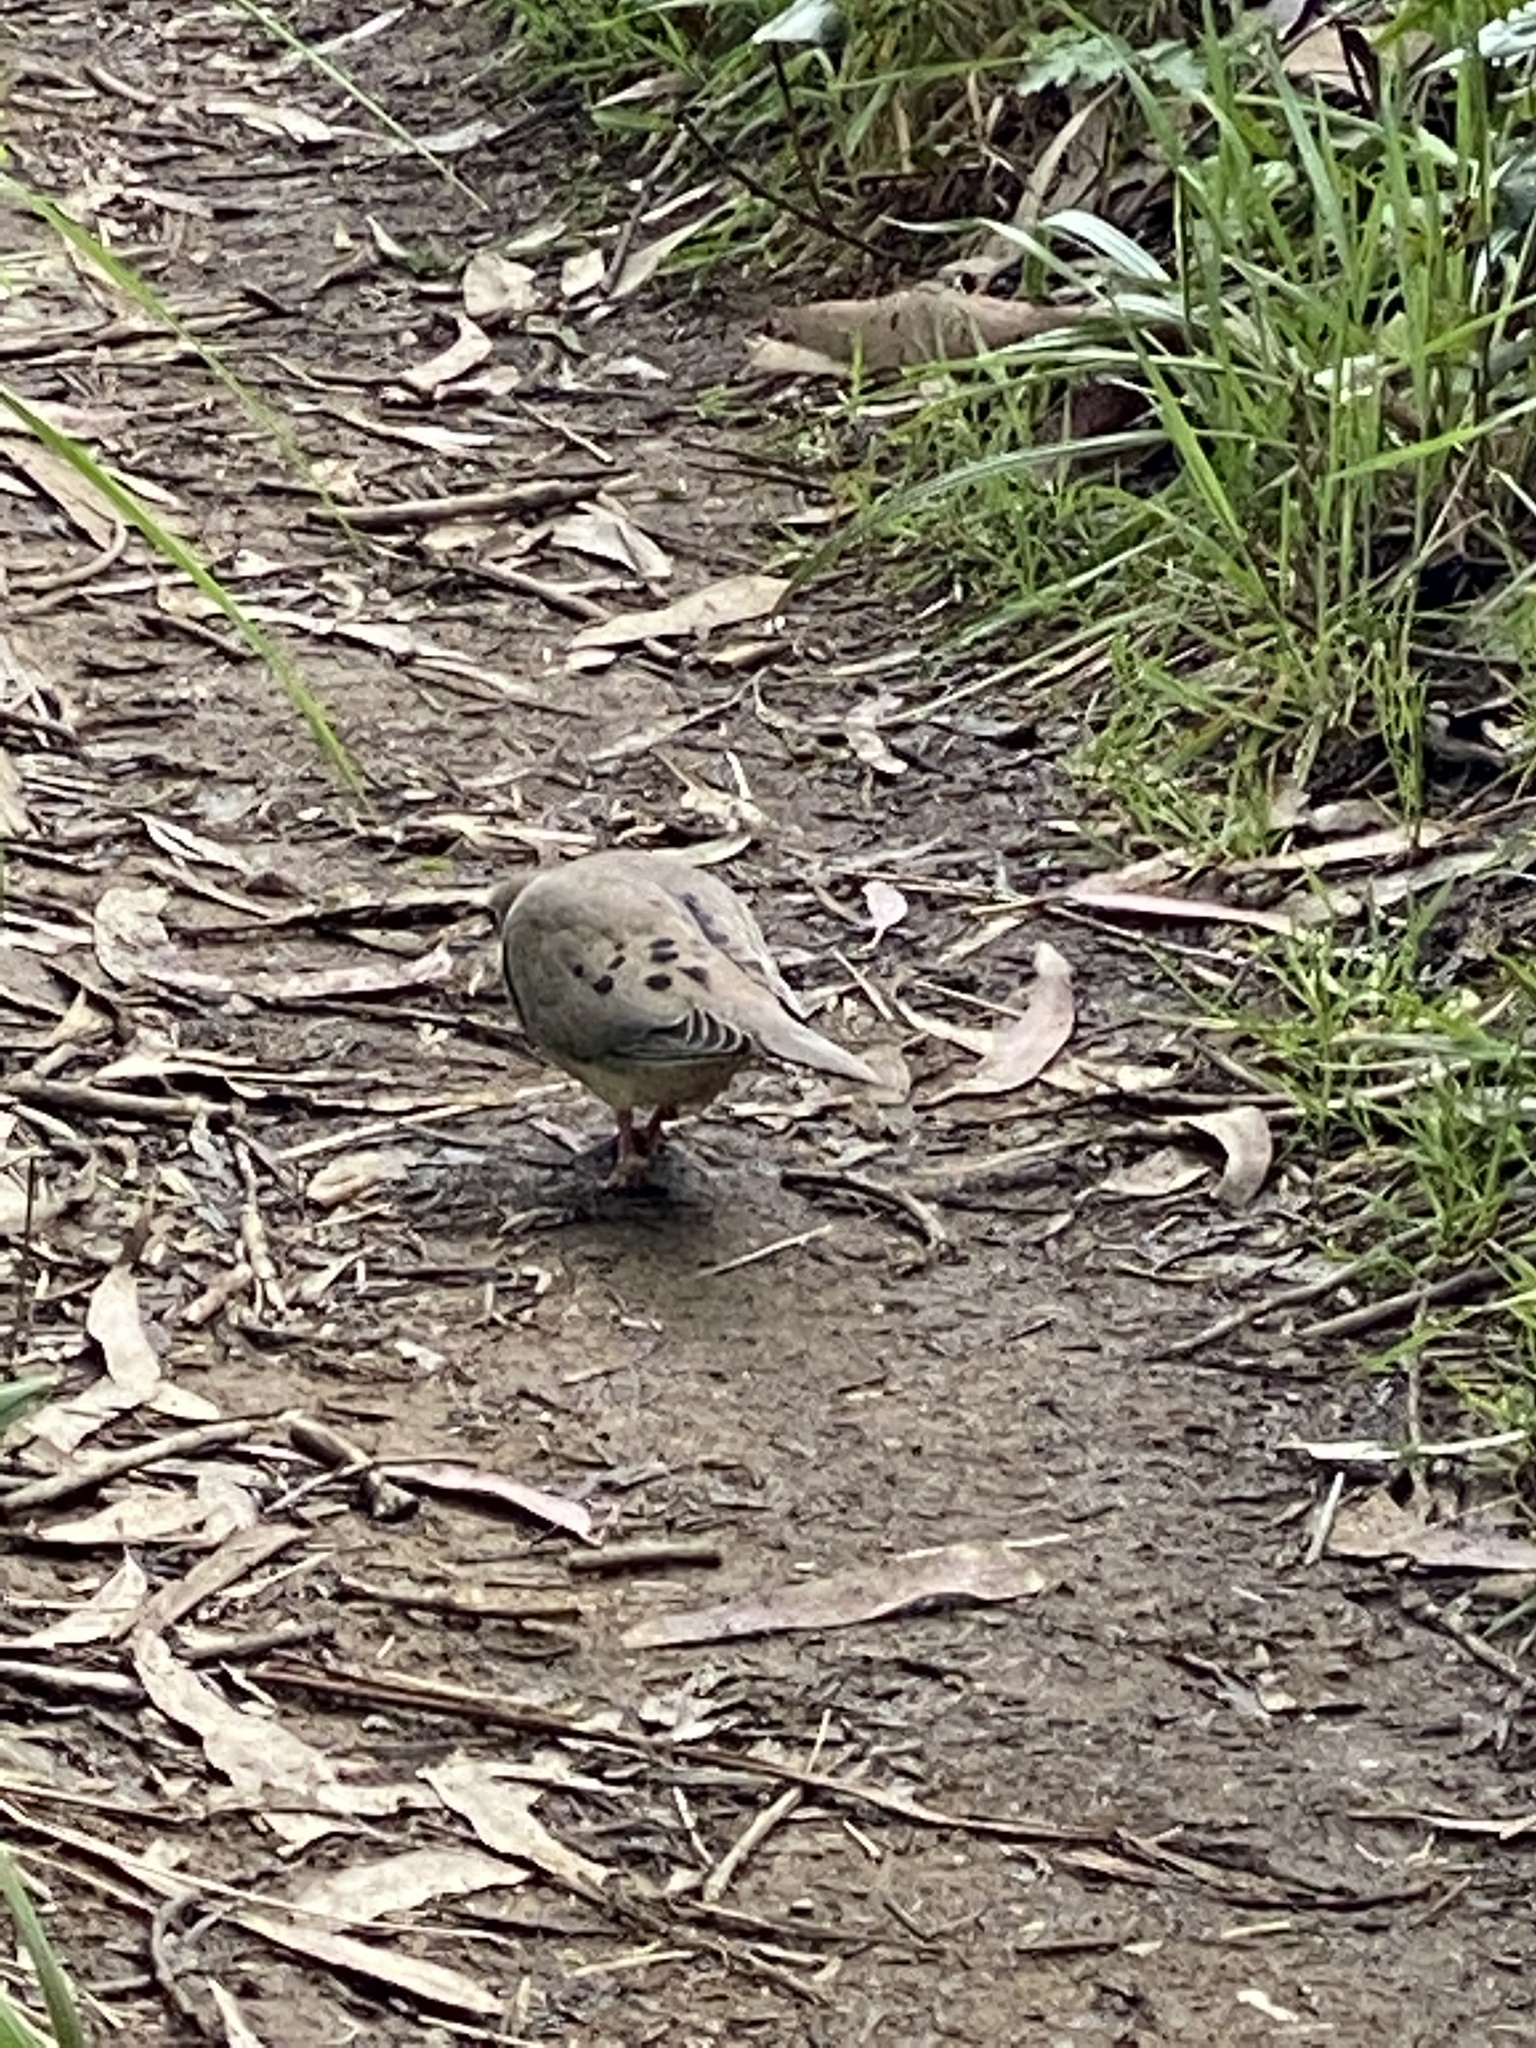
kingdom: Animalia
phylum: Chordata
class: Aves
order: Columbiformes
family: Columbidae
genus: Zenaida
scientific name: Zenaida macroura
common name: Mourning dove
